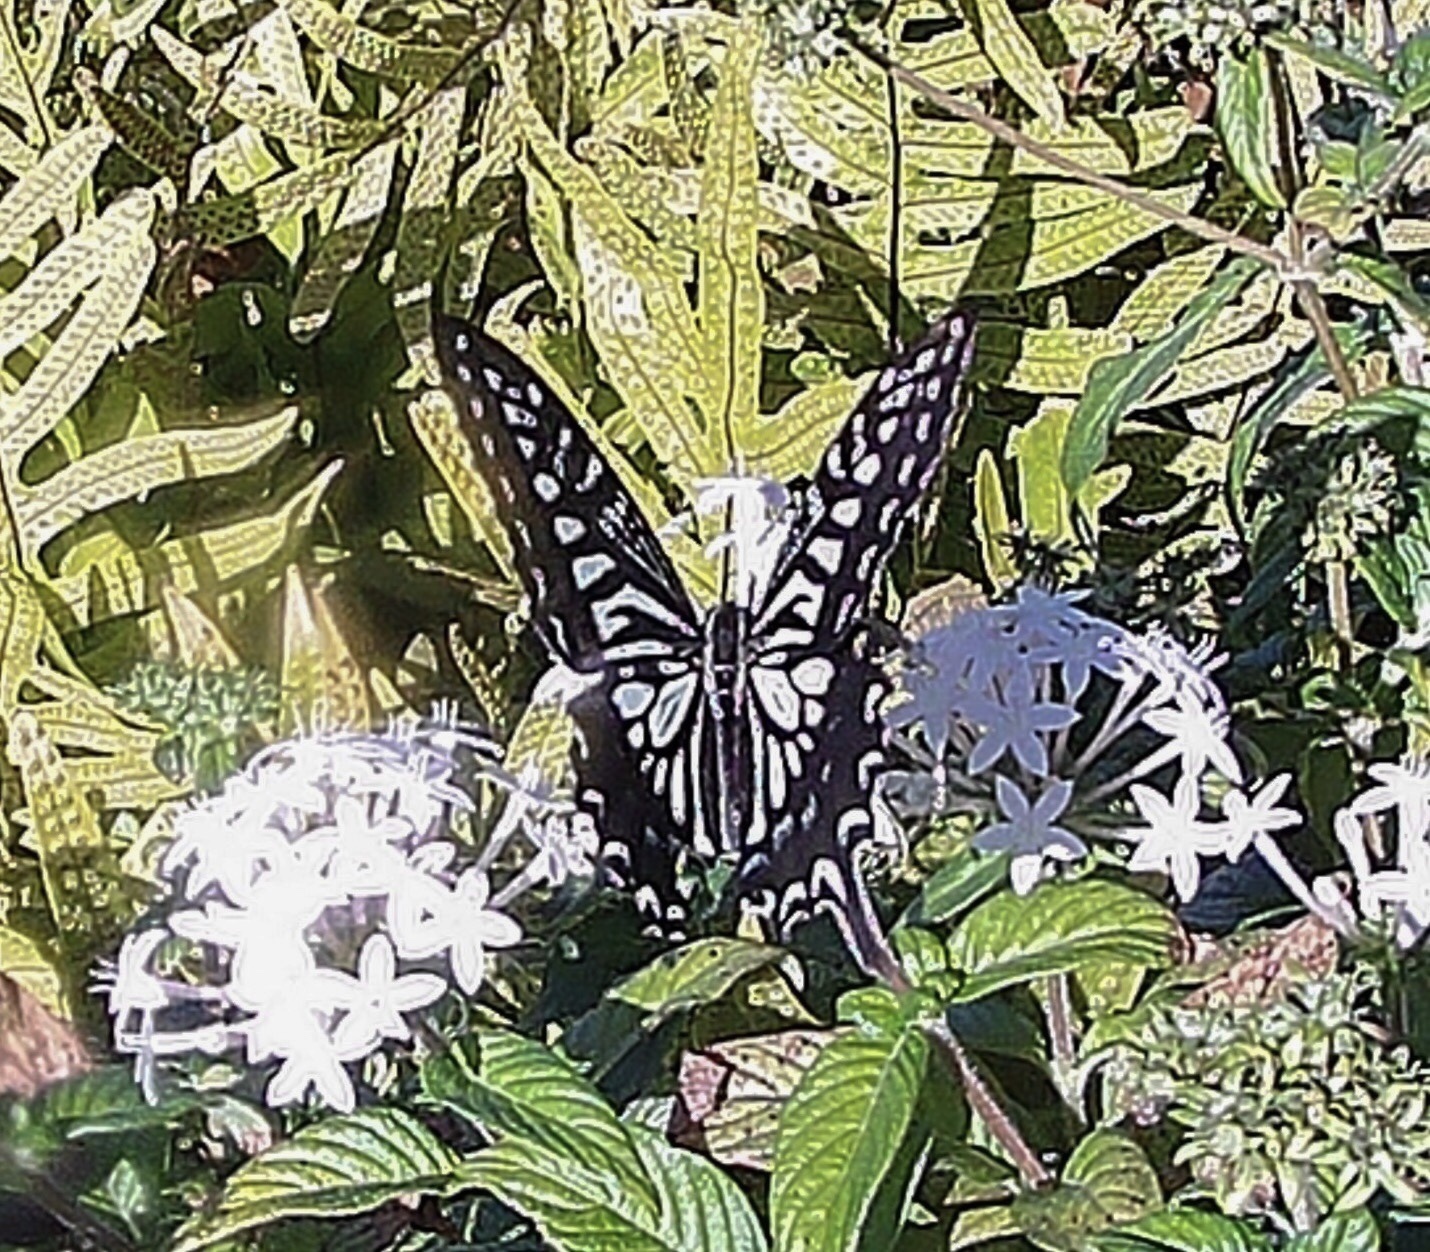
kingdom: Animalia
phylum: Arthropoda
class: Insecta
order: Lepidoptera
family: Papilionidae
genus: Papilio
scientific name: Papilio xuthus
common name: Asian swallowtail
